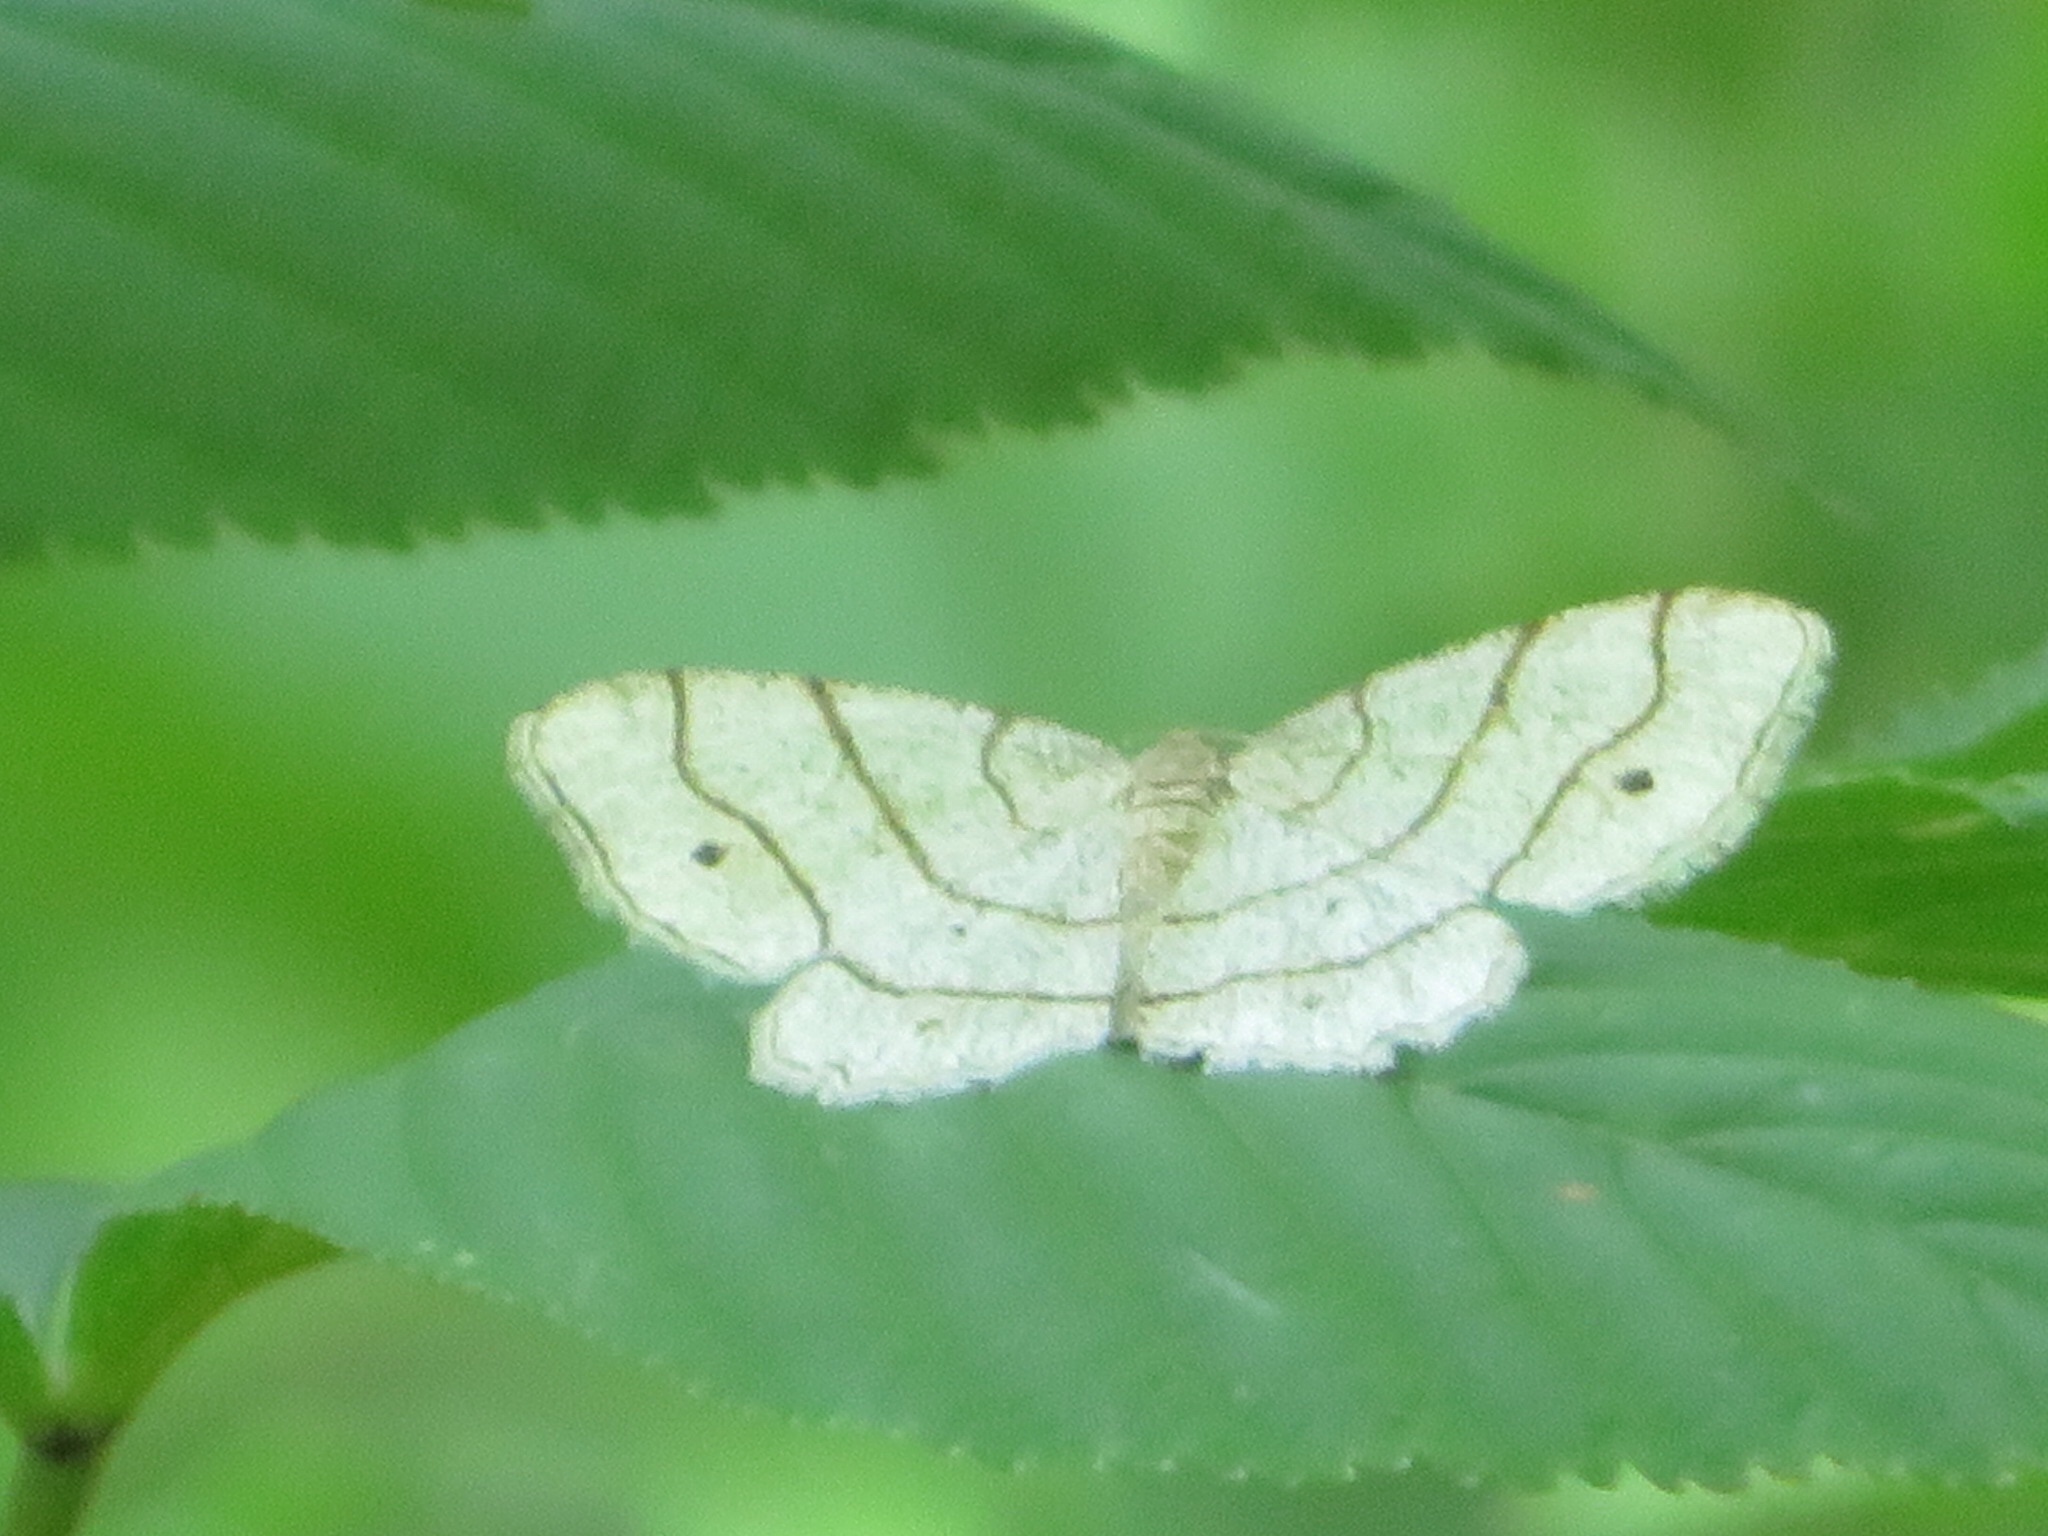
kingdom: Animalia
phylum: Arthropoda
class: Insecta
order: Lepidoptera
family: Geometridae
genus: Trigrammia
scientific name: Trigrammia quadrinotaria
